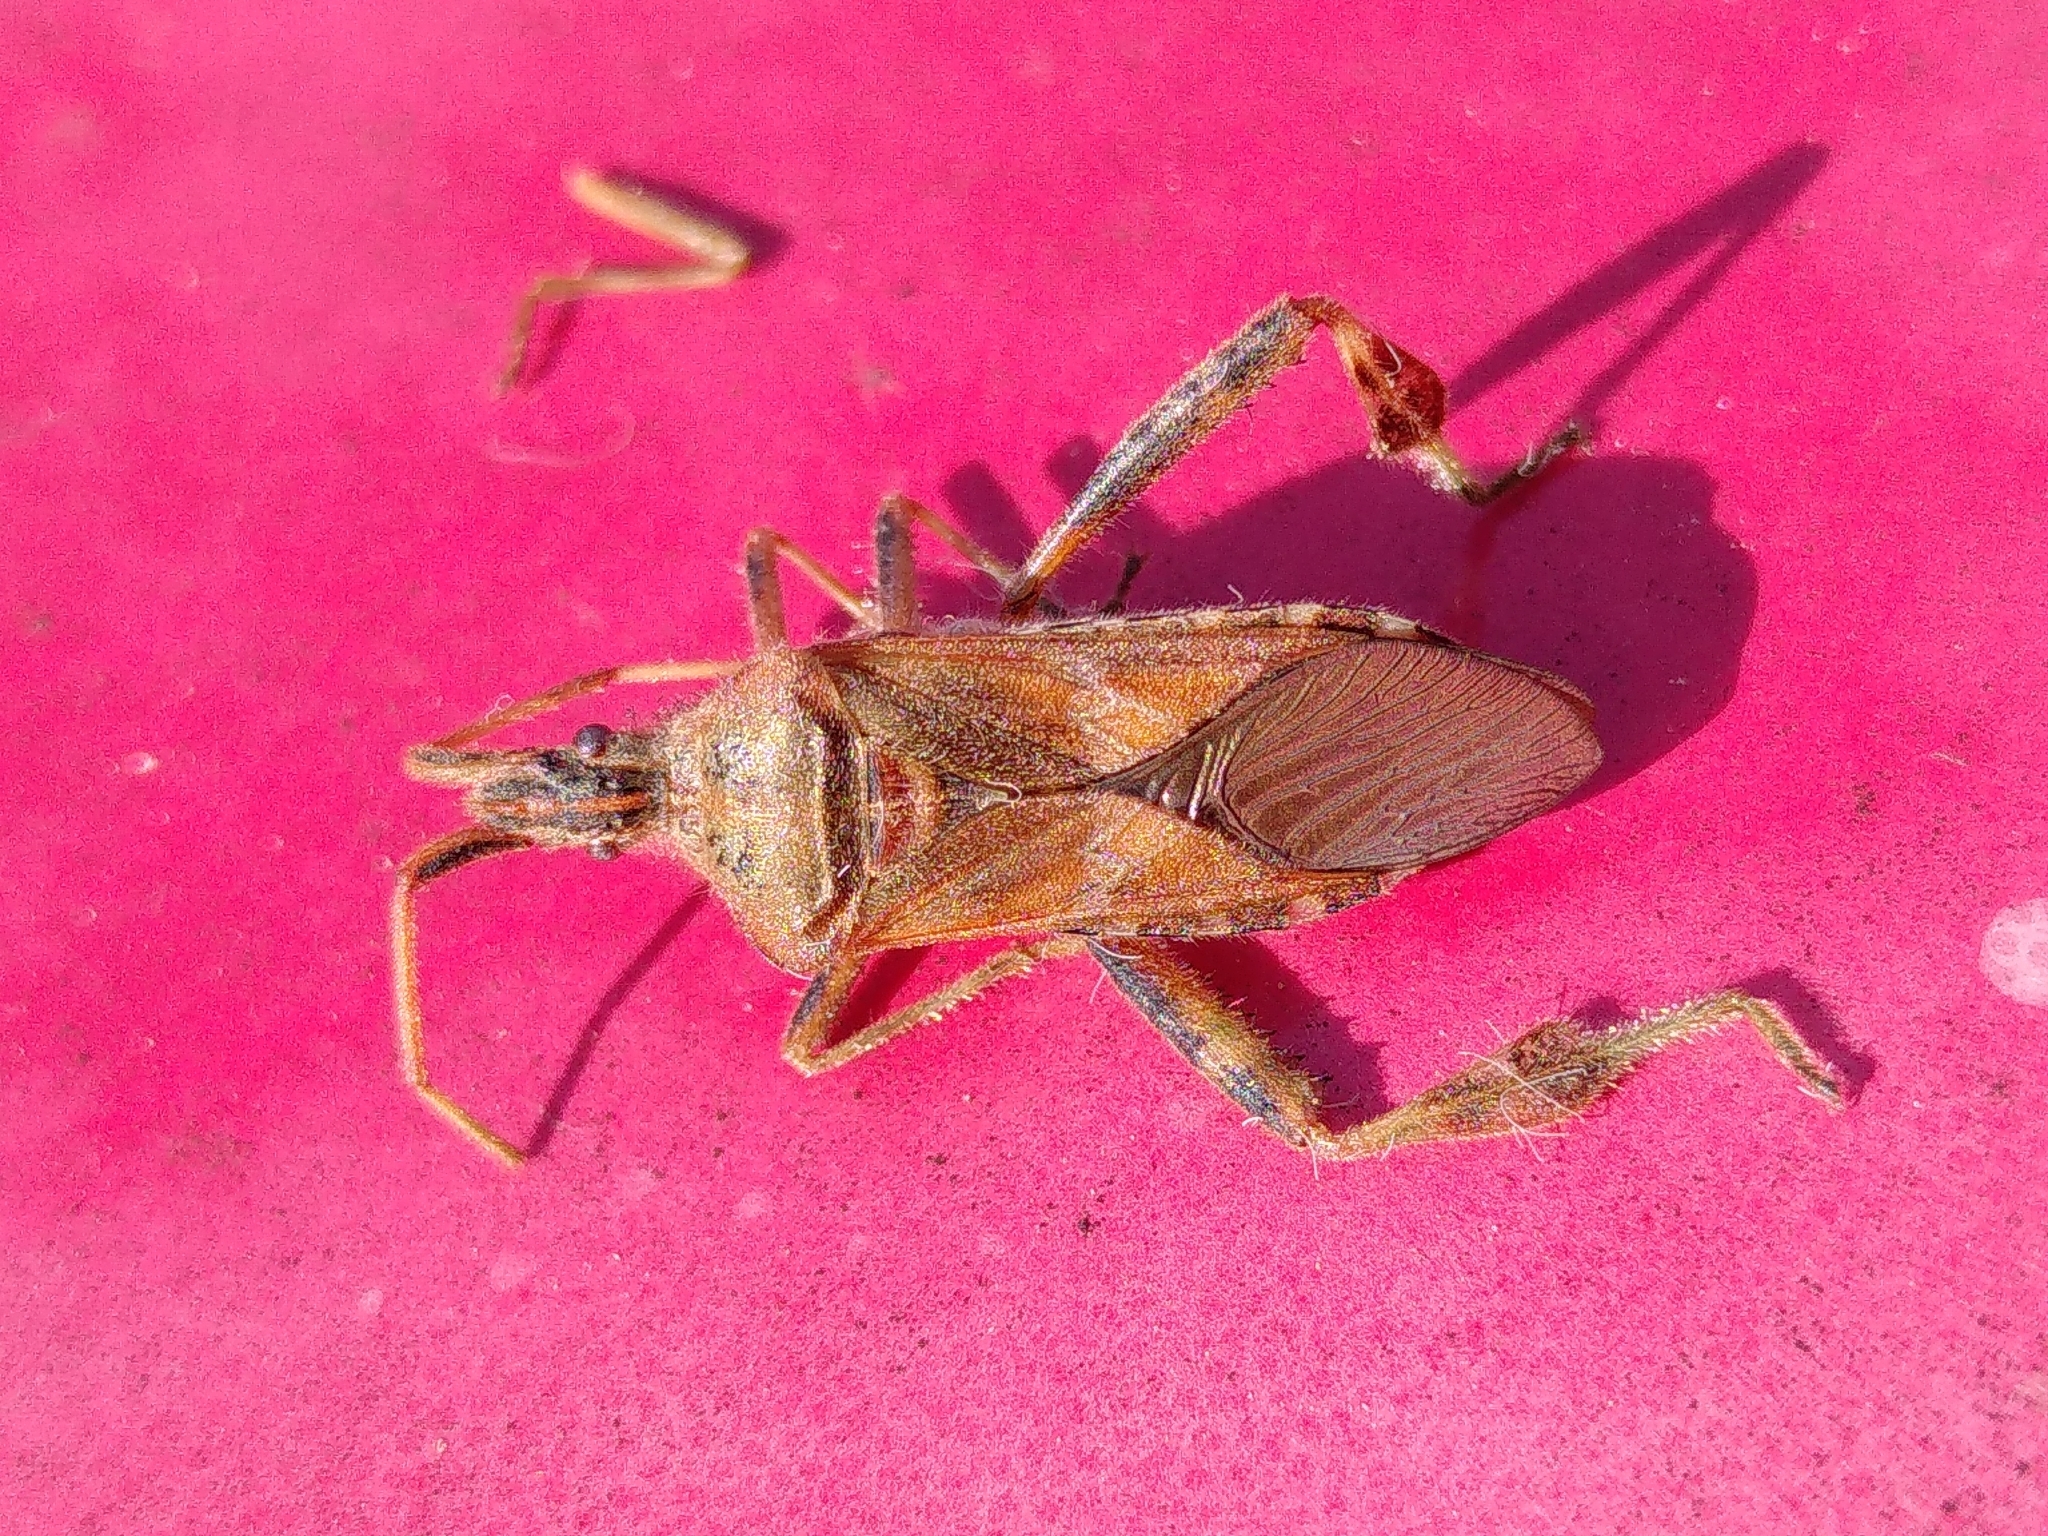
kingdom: Animalia
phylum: Arthropoda
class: Insecta
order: Hemiptera
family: Coreidae
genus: Leptoglossus
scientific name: Leptoglossus occidentalis
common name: Western conifer-seed bug
